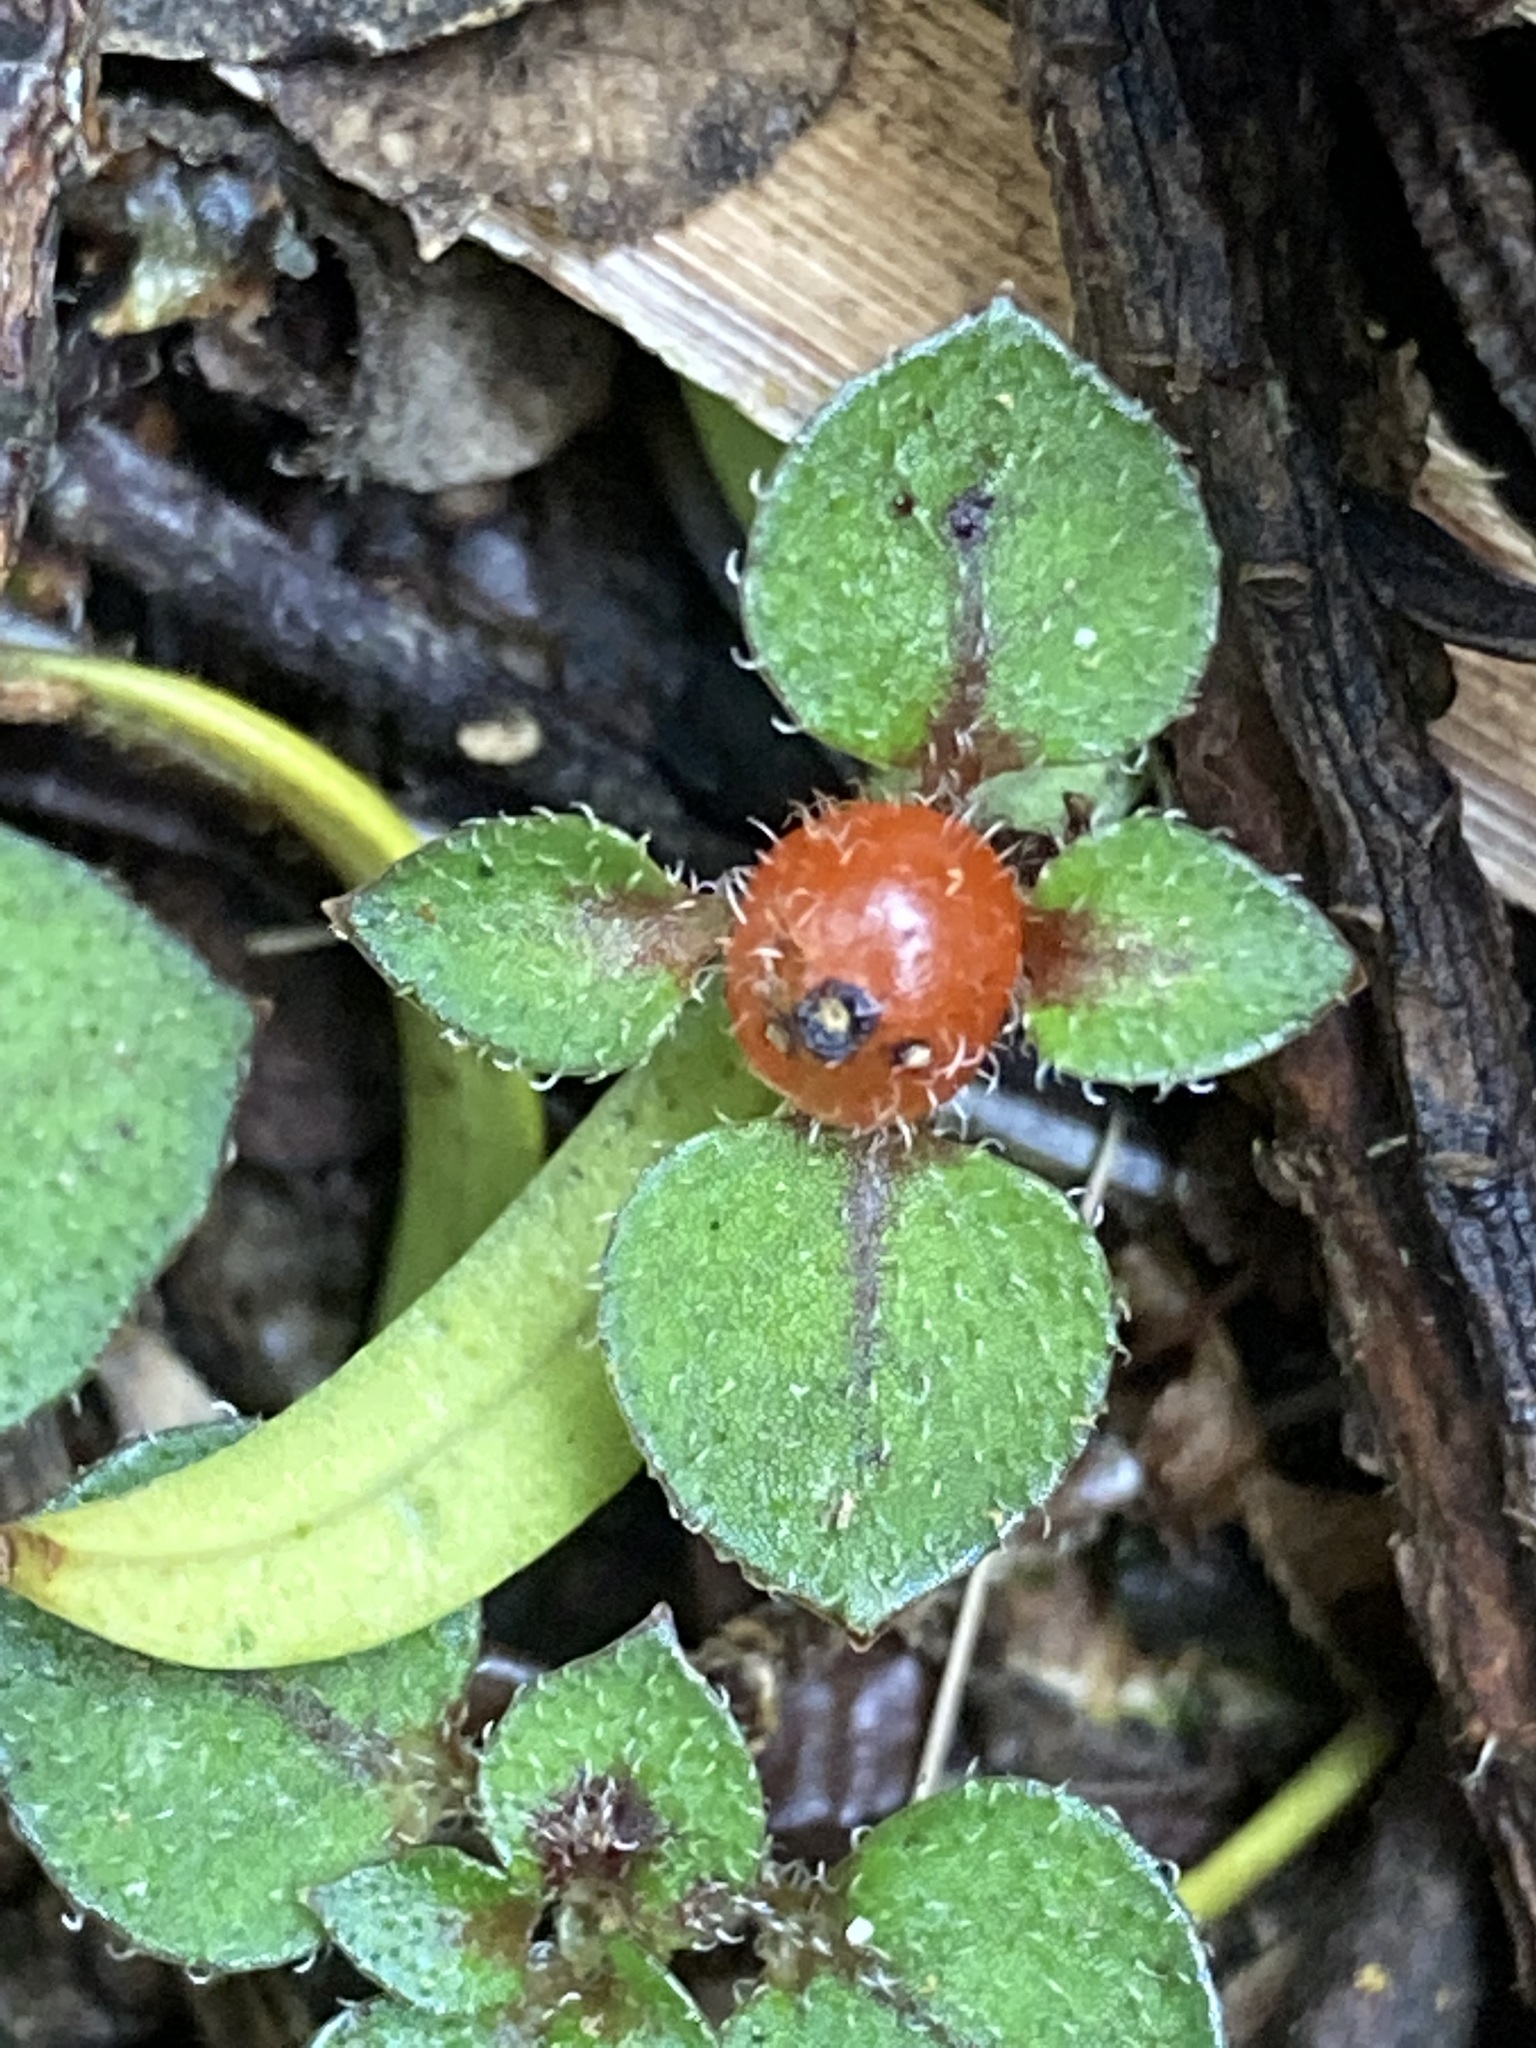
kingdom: Plantae
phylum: Tracheophyta
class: Magnoliopsida
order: Gentianales
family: Rubiaceae
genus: Nertera
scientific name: Nertera dichondrifolia
